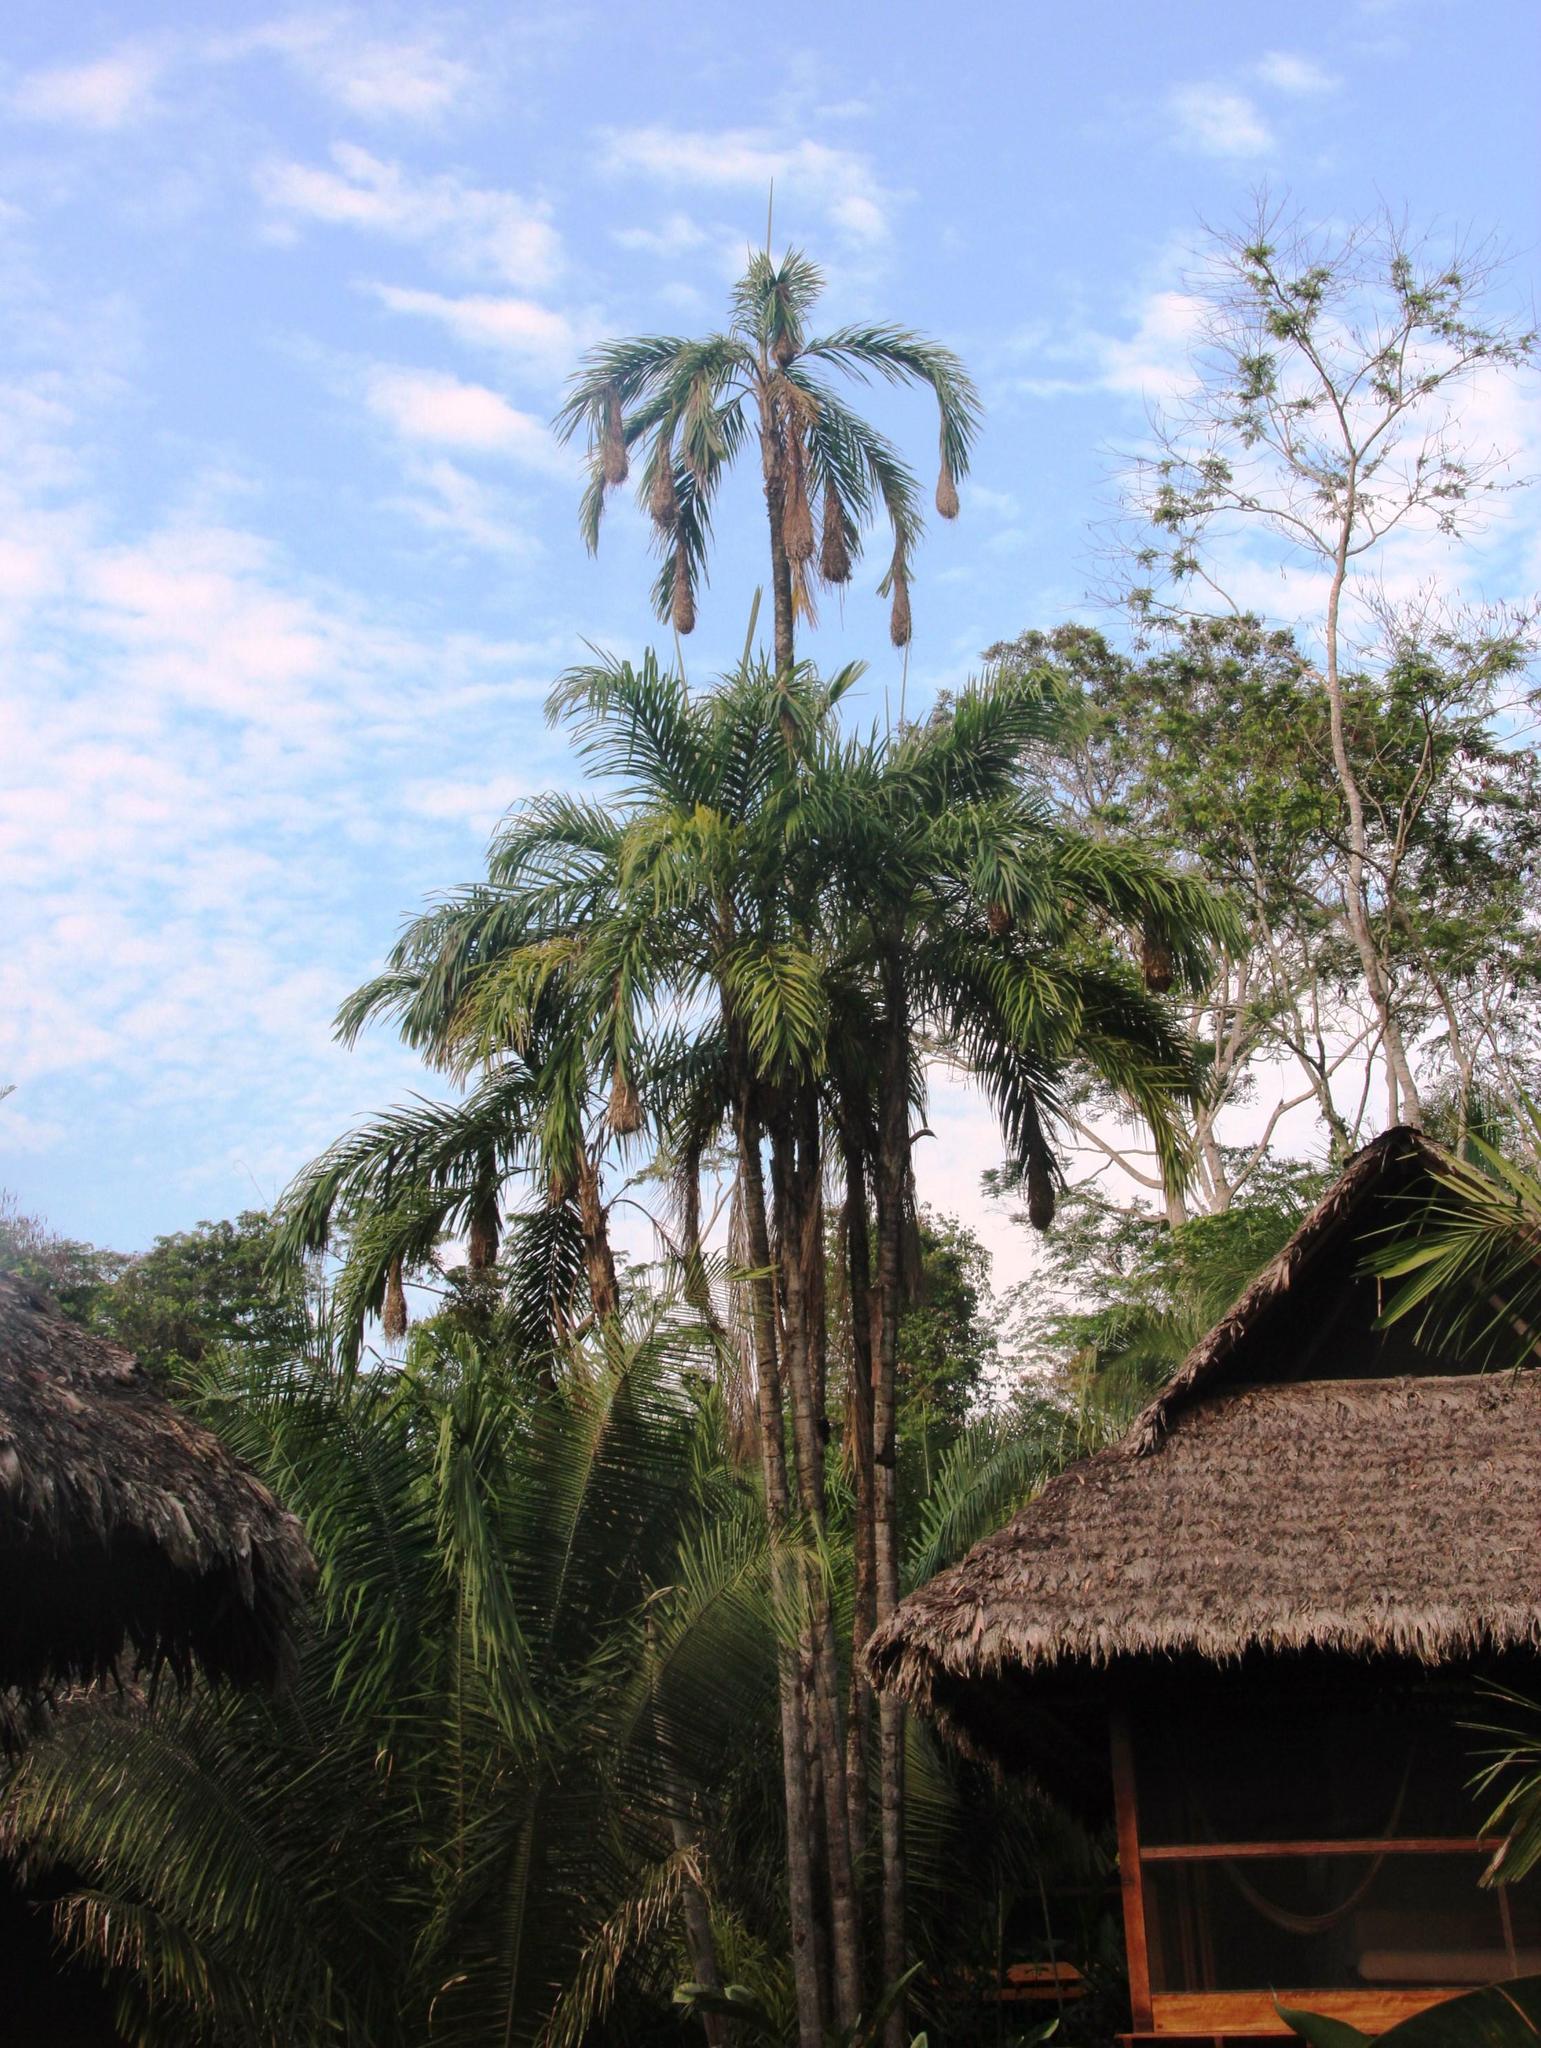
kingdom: Animalia
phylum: Chordata
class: Aves
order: Passeriformes
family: Icteridae
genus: Psarocolius
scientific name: Psarocolius angustifrons
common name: Russet-backed oropendola
